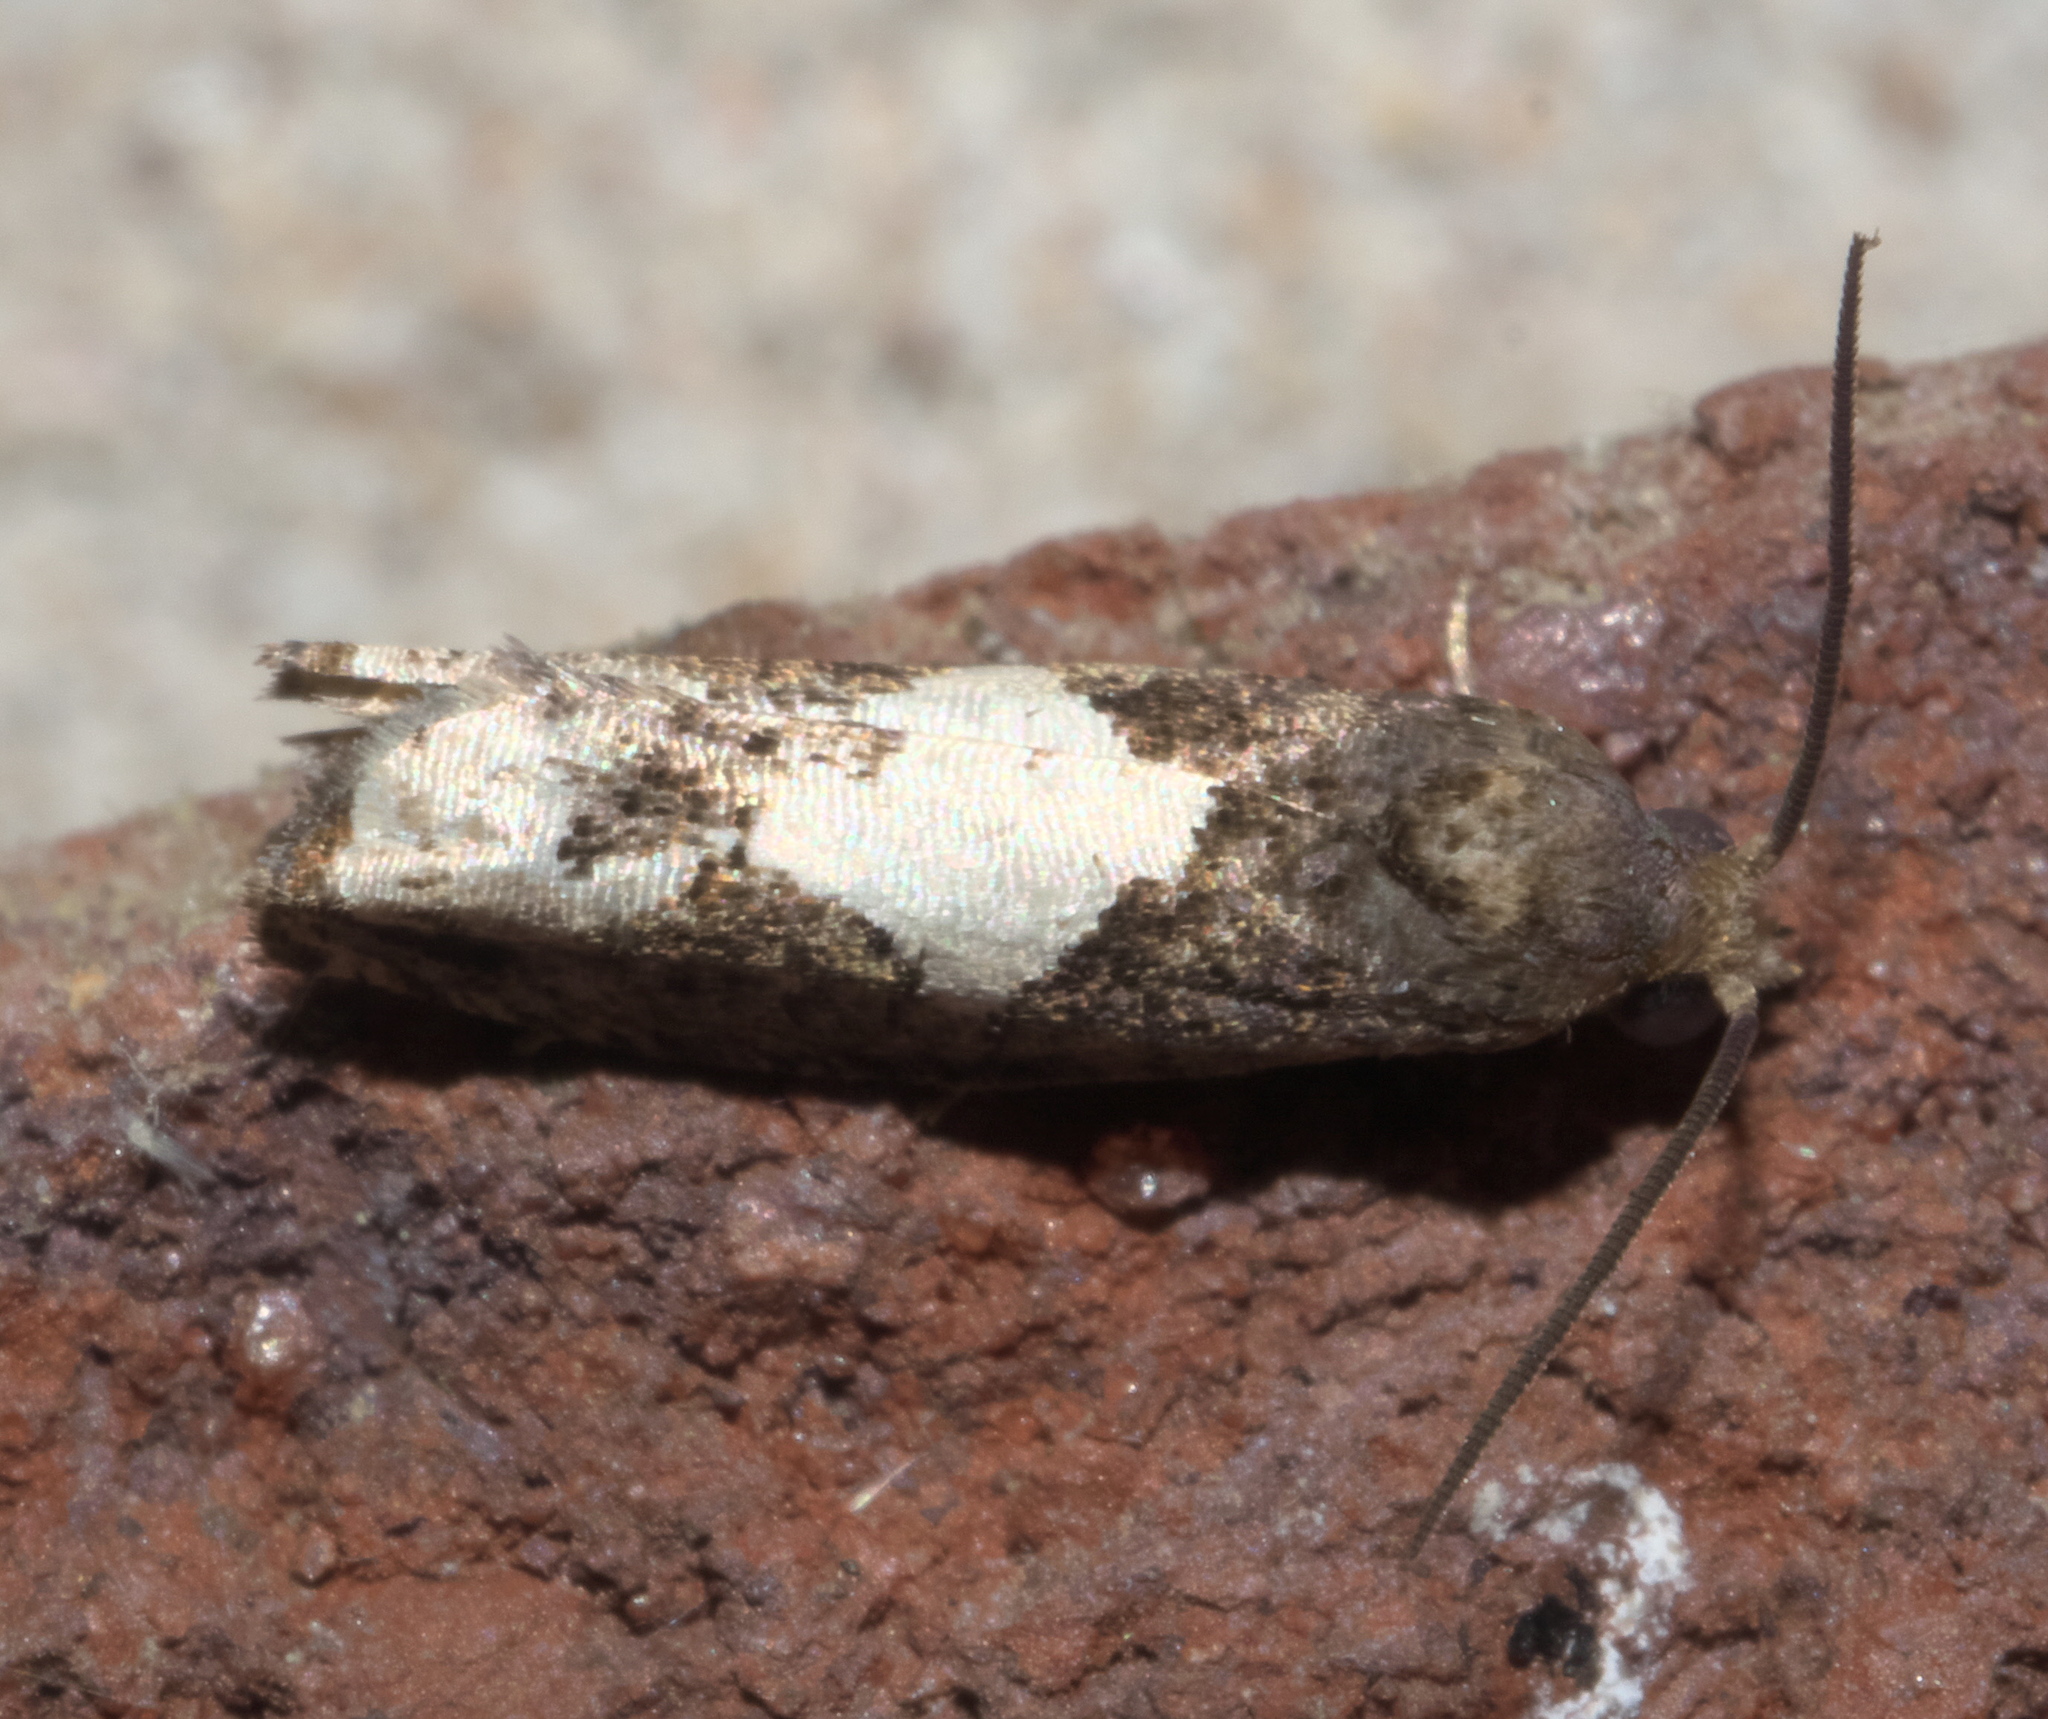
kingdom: Animalia
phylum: Arthropoda
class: Insecta
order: Lepidoptera
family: Tortricidae
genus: Epiblema
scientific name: Epiblema otiosana
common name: Bidens borer moth
